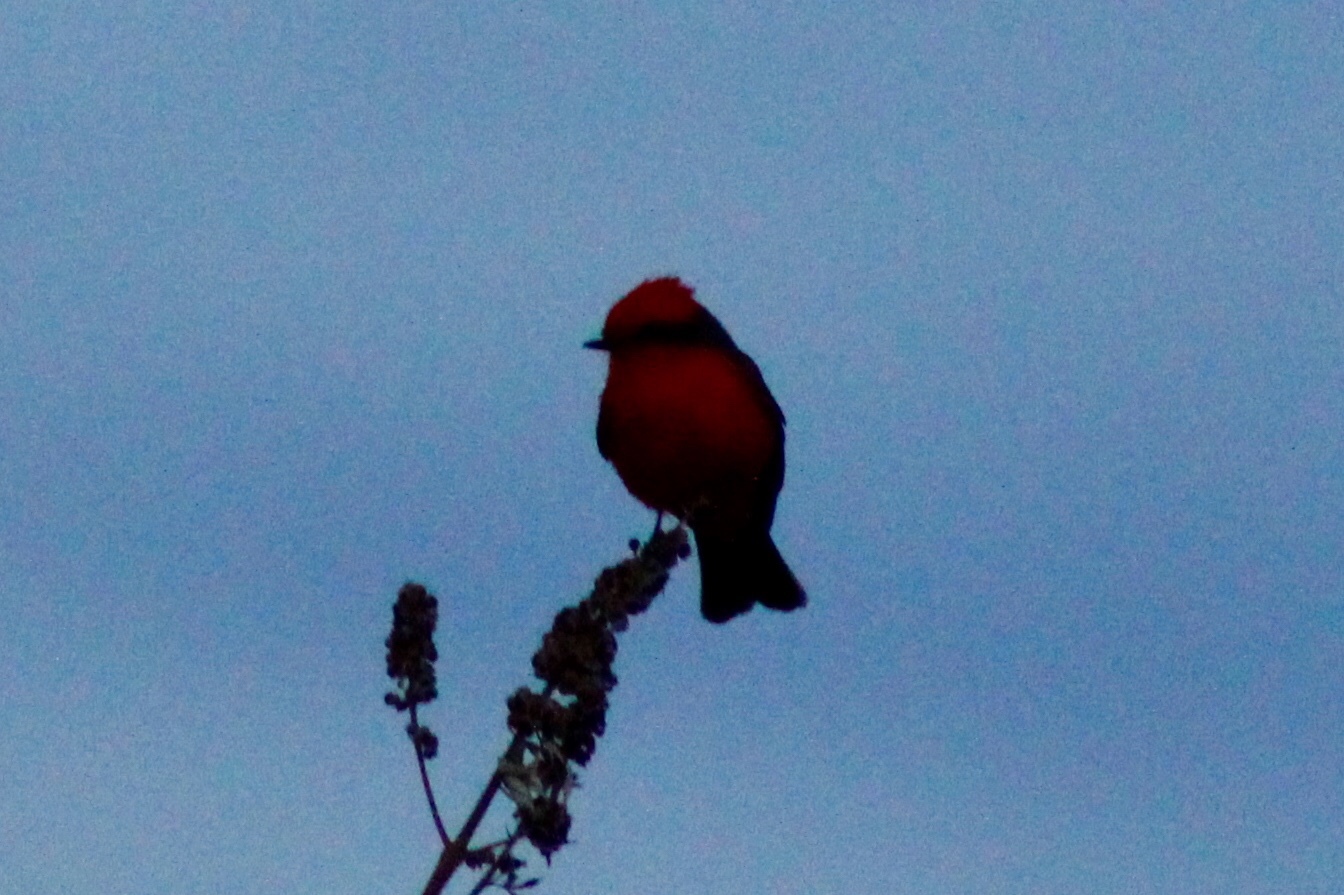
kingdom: Animalia
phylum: Chordata
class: Aves
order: Passeriformes
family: Tyrannidae
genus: Pyrocephalus
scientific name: Pyrocephalus rubinus
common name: Vermilion flycatcher
